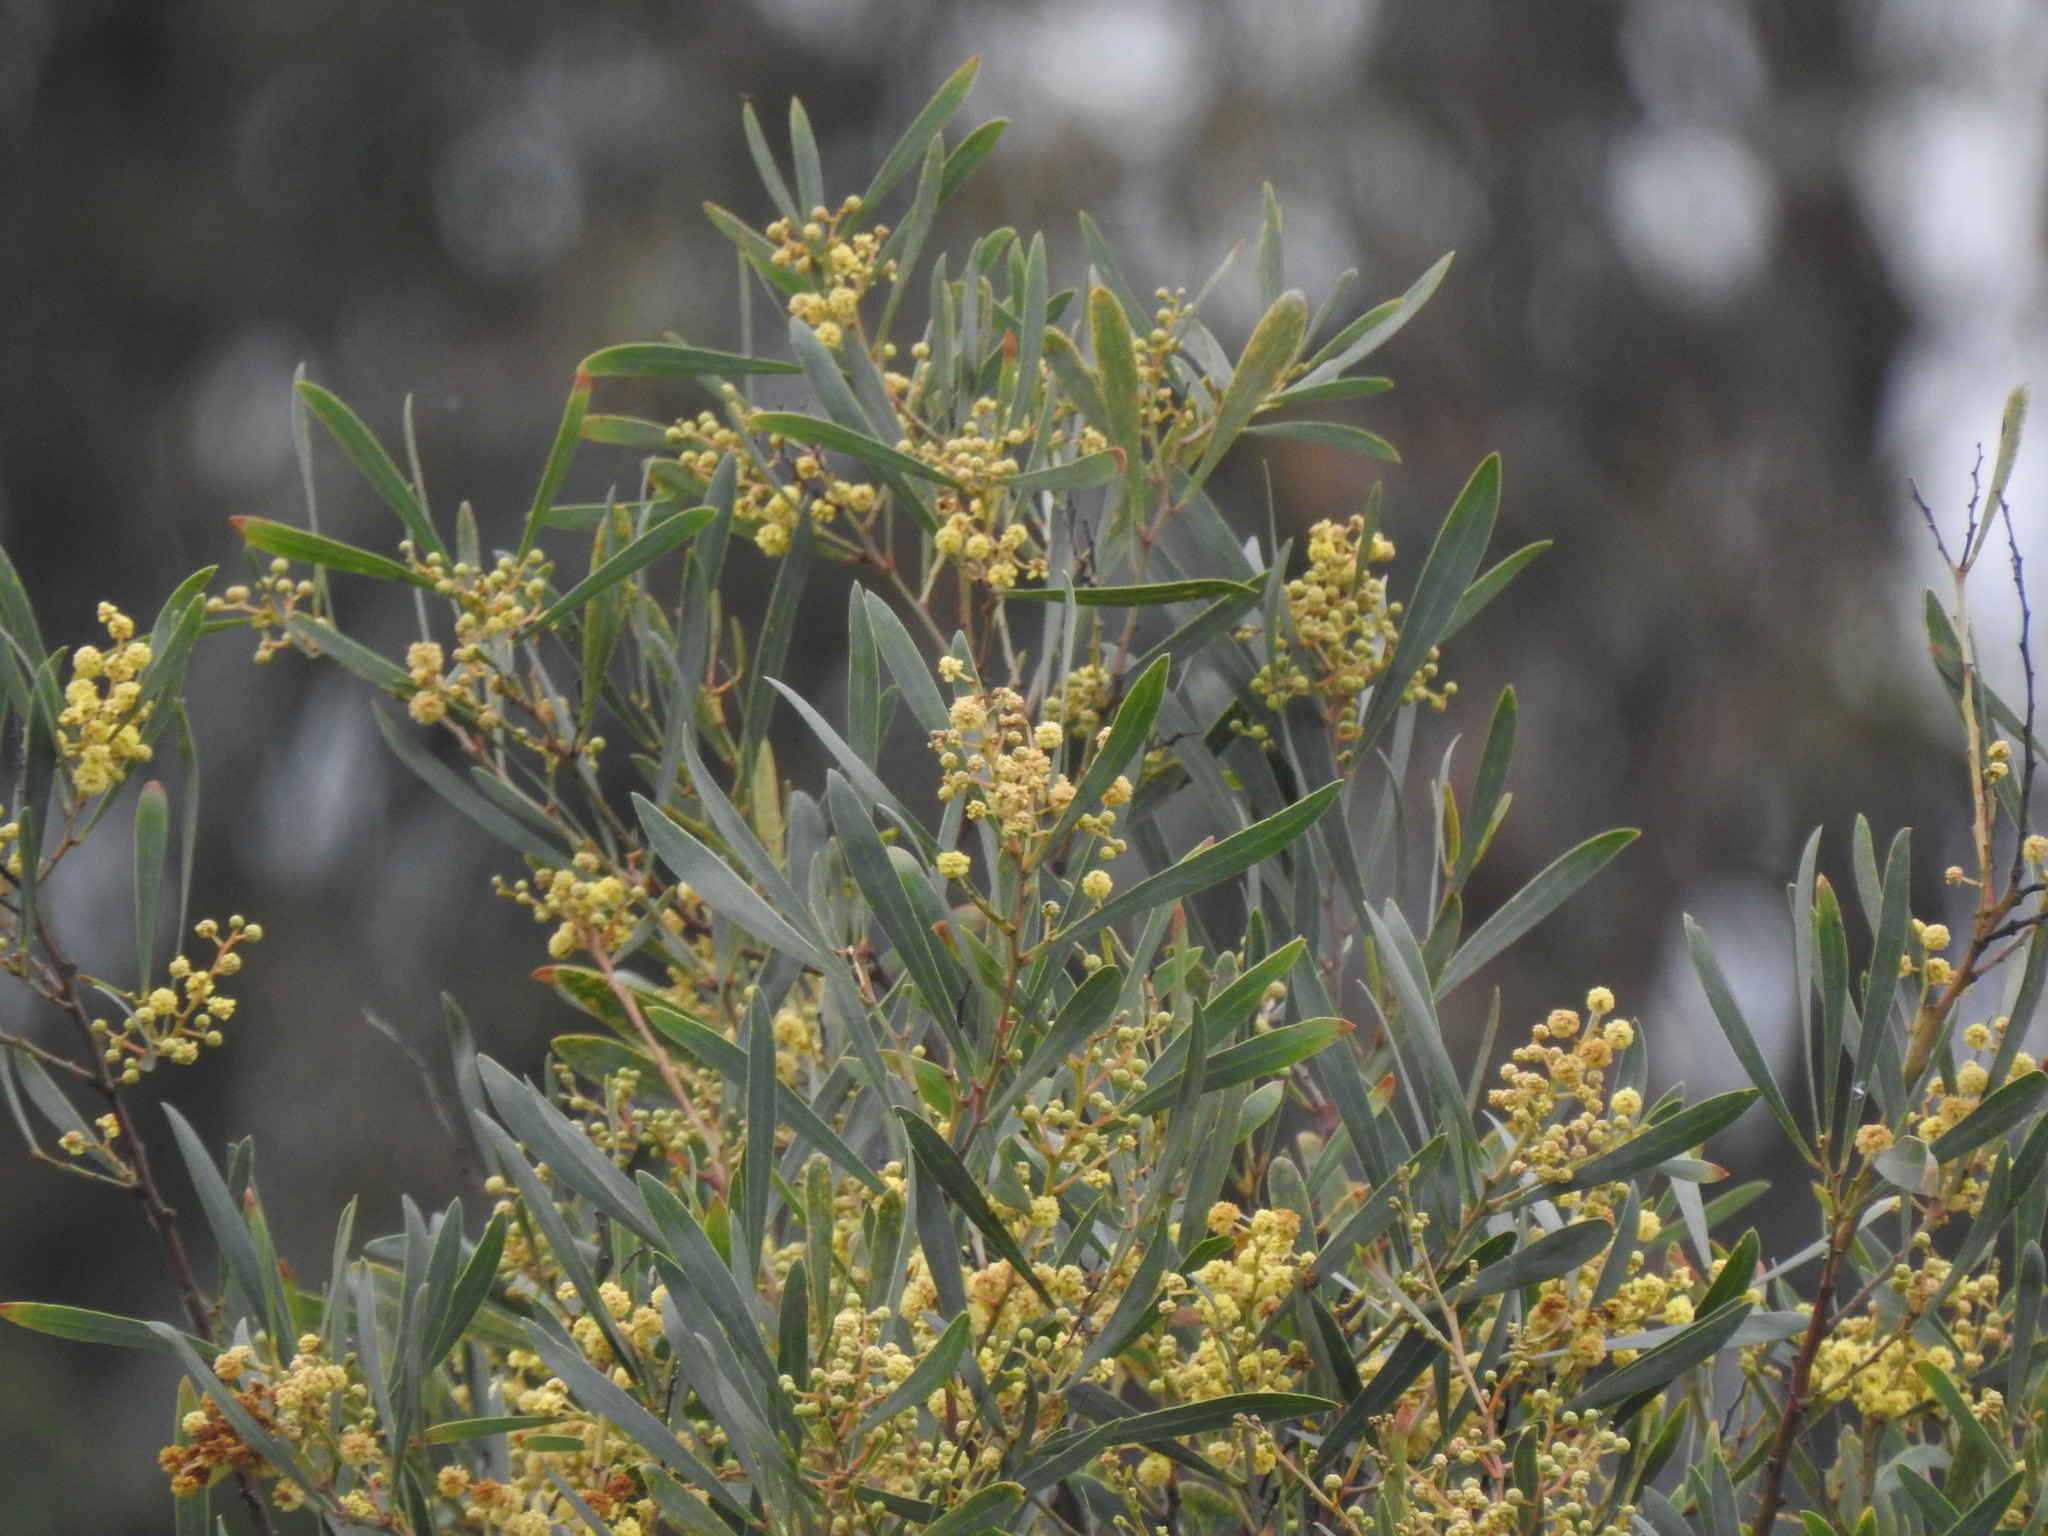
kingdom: Plantae
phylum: Tracheophyta
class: Magnoliopsida
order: Fabales
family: Fabaceae
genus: Acacia
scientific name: Acacia provincialis
